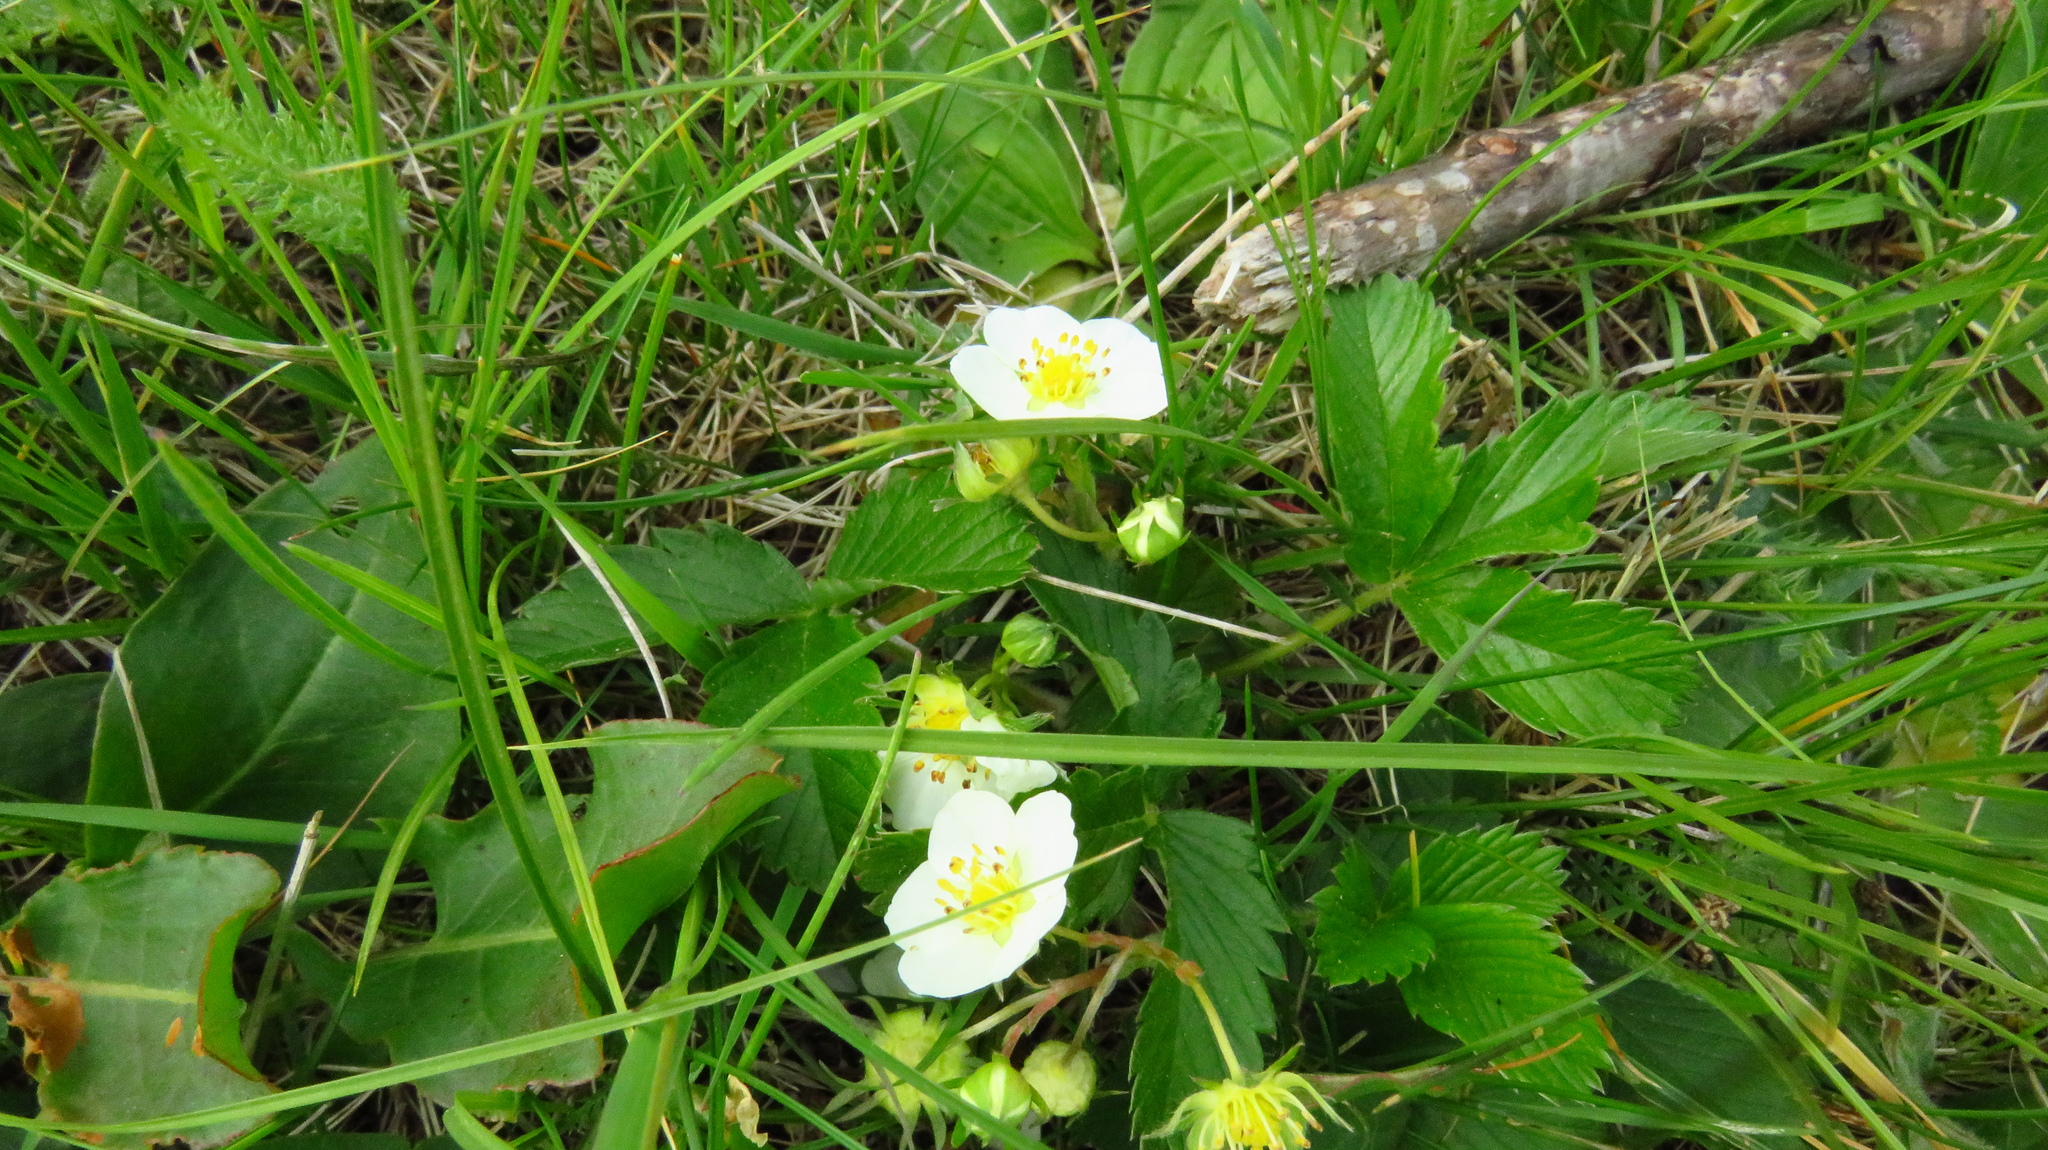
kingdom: Plantae
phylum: Tracheophyta
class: Magnoliopsida
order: Rosales
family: Rosaceae
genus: Fragaria
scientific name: Fragaria viridis
